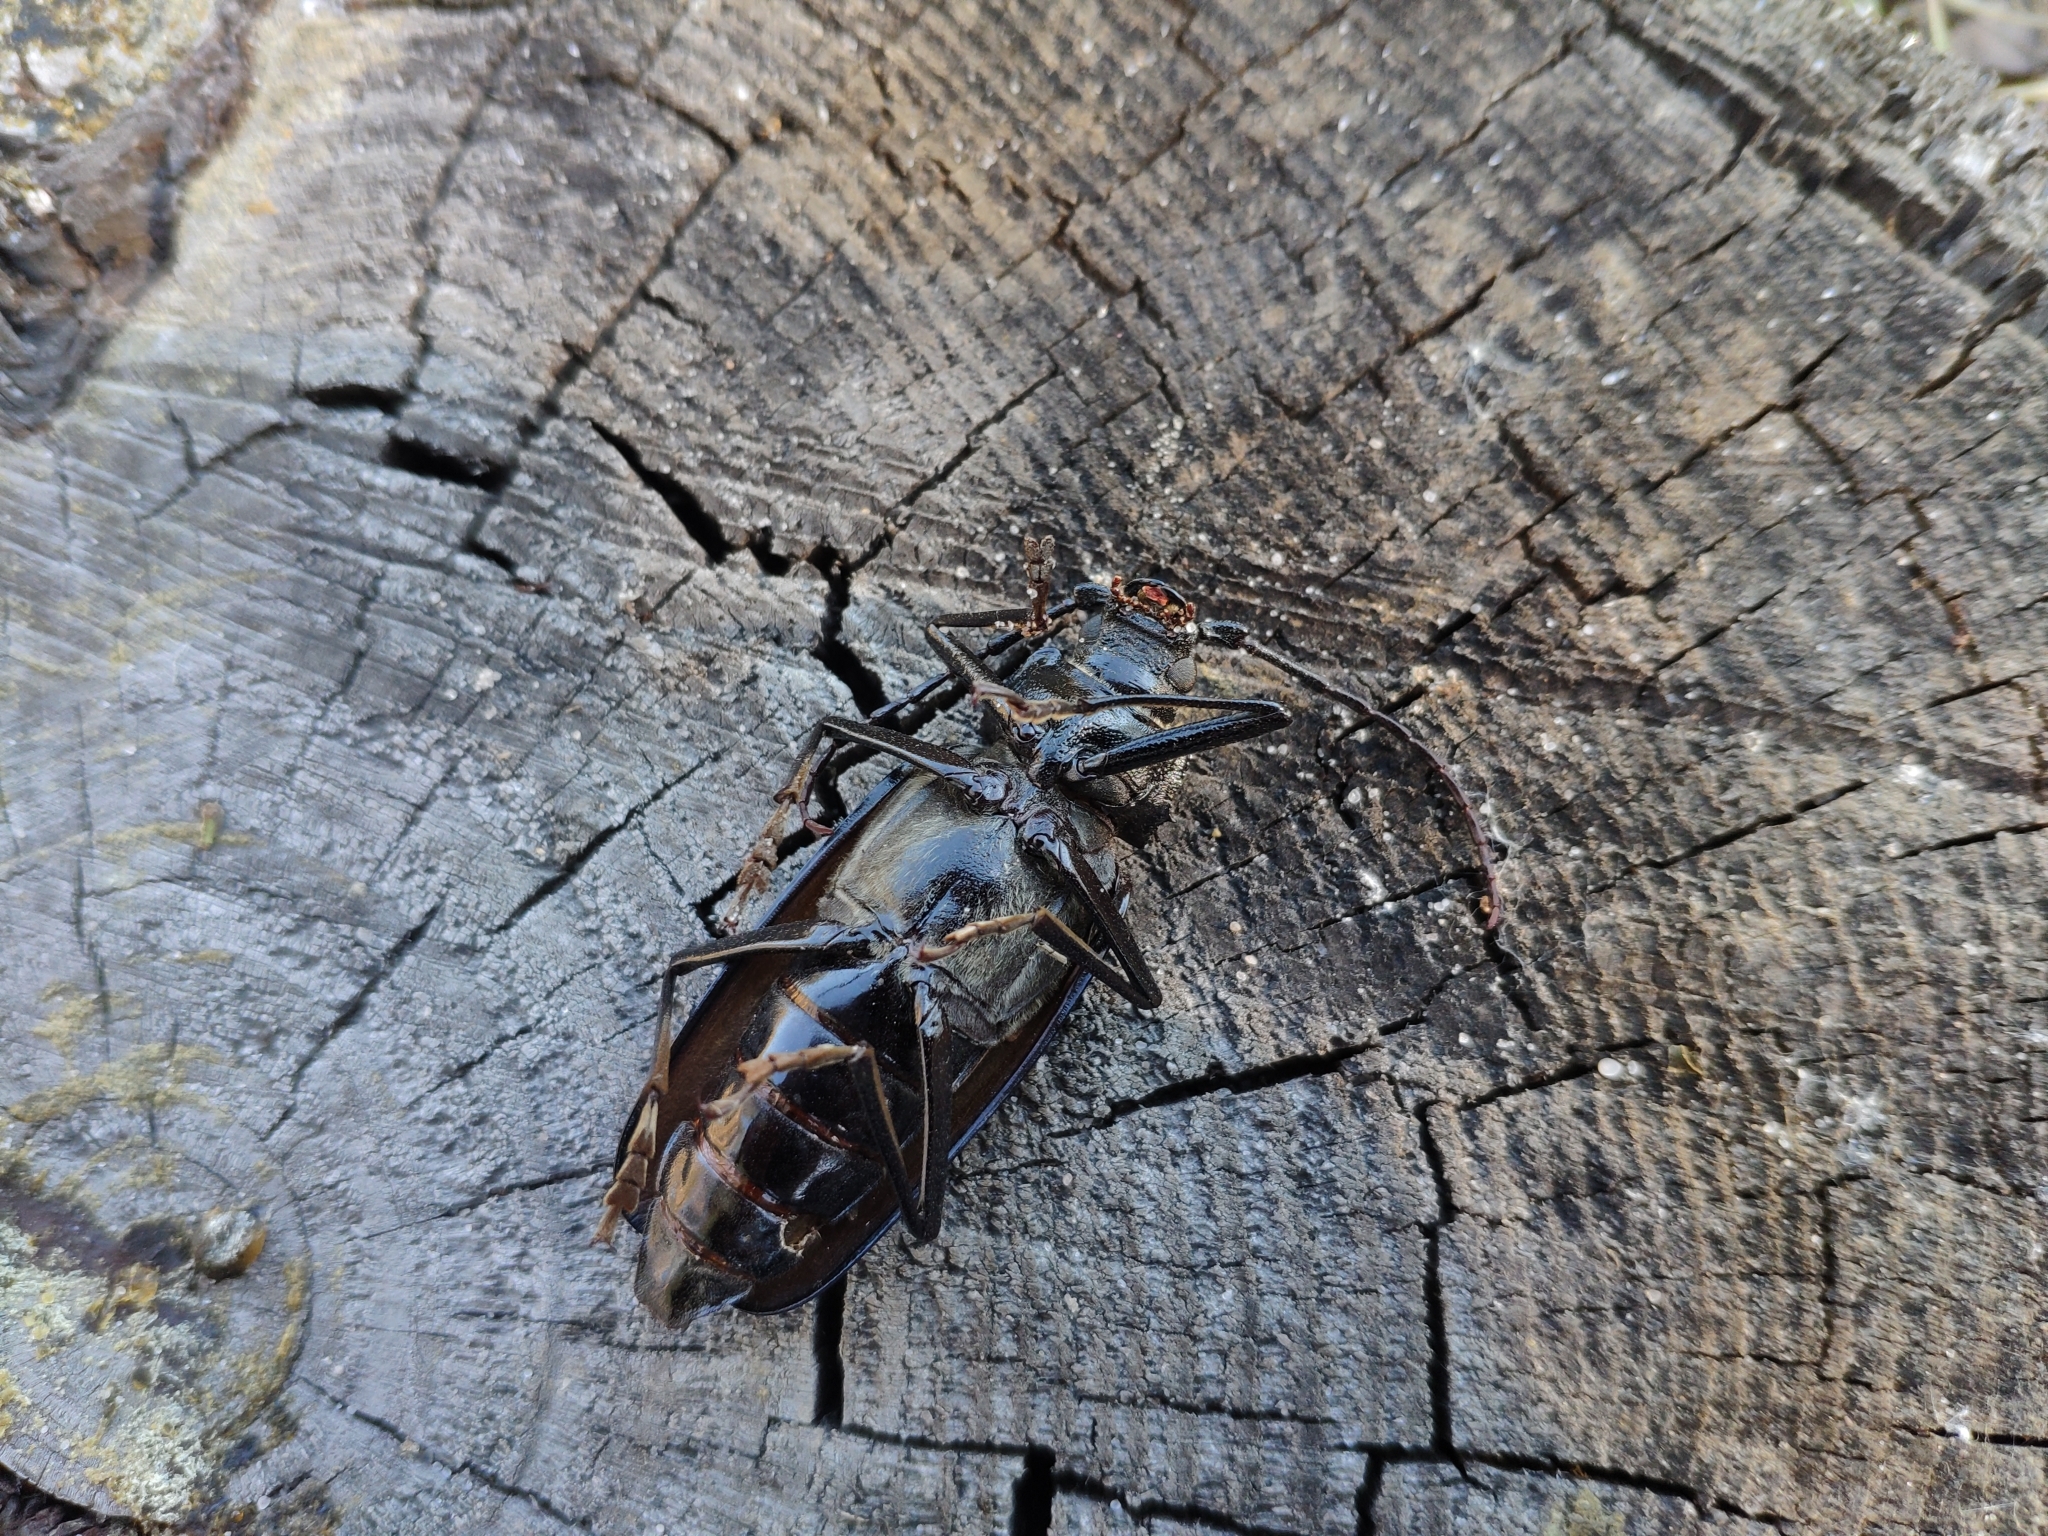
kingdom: Animalia
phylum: Arthropoda
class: Insecta
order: Coleoptera
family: Cerambycidae
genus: Ergates
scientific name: Ergates faber
